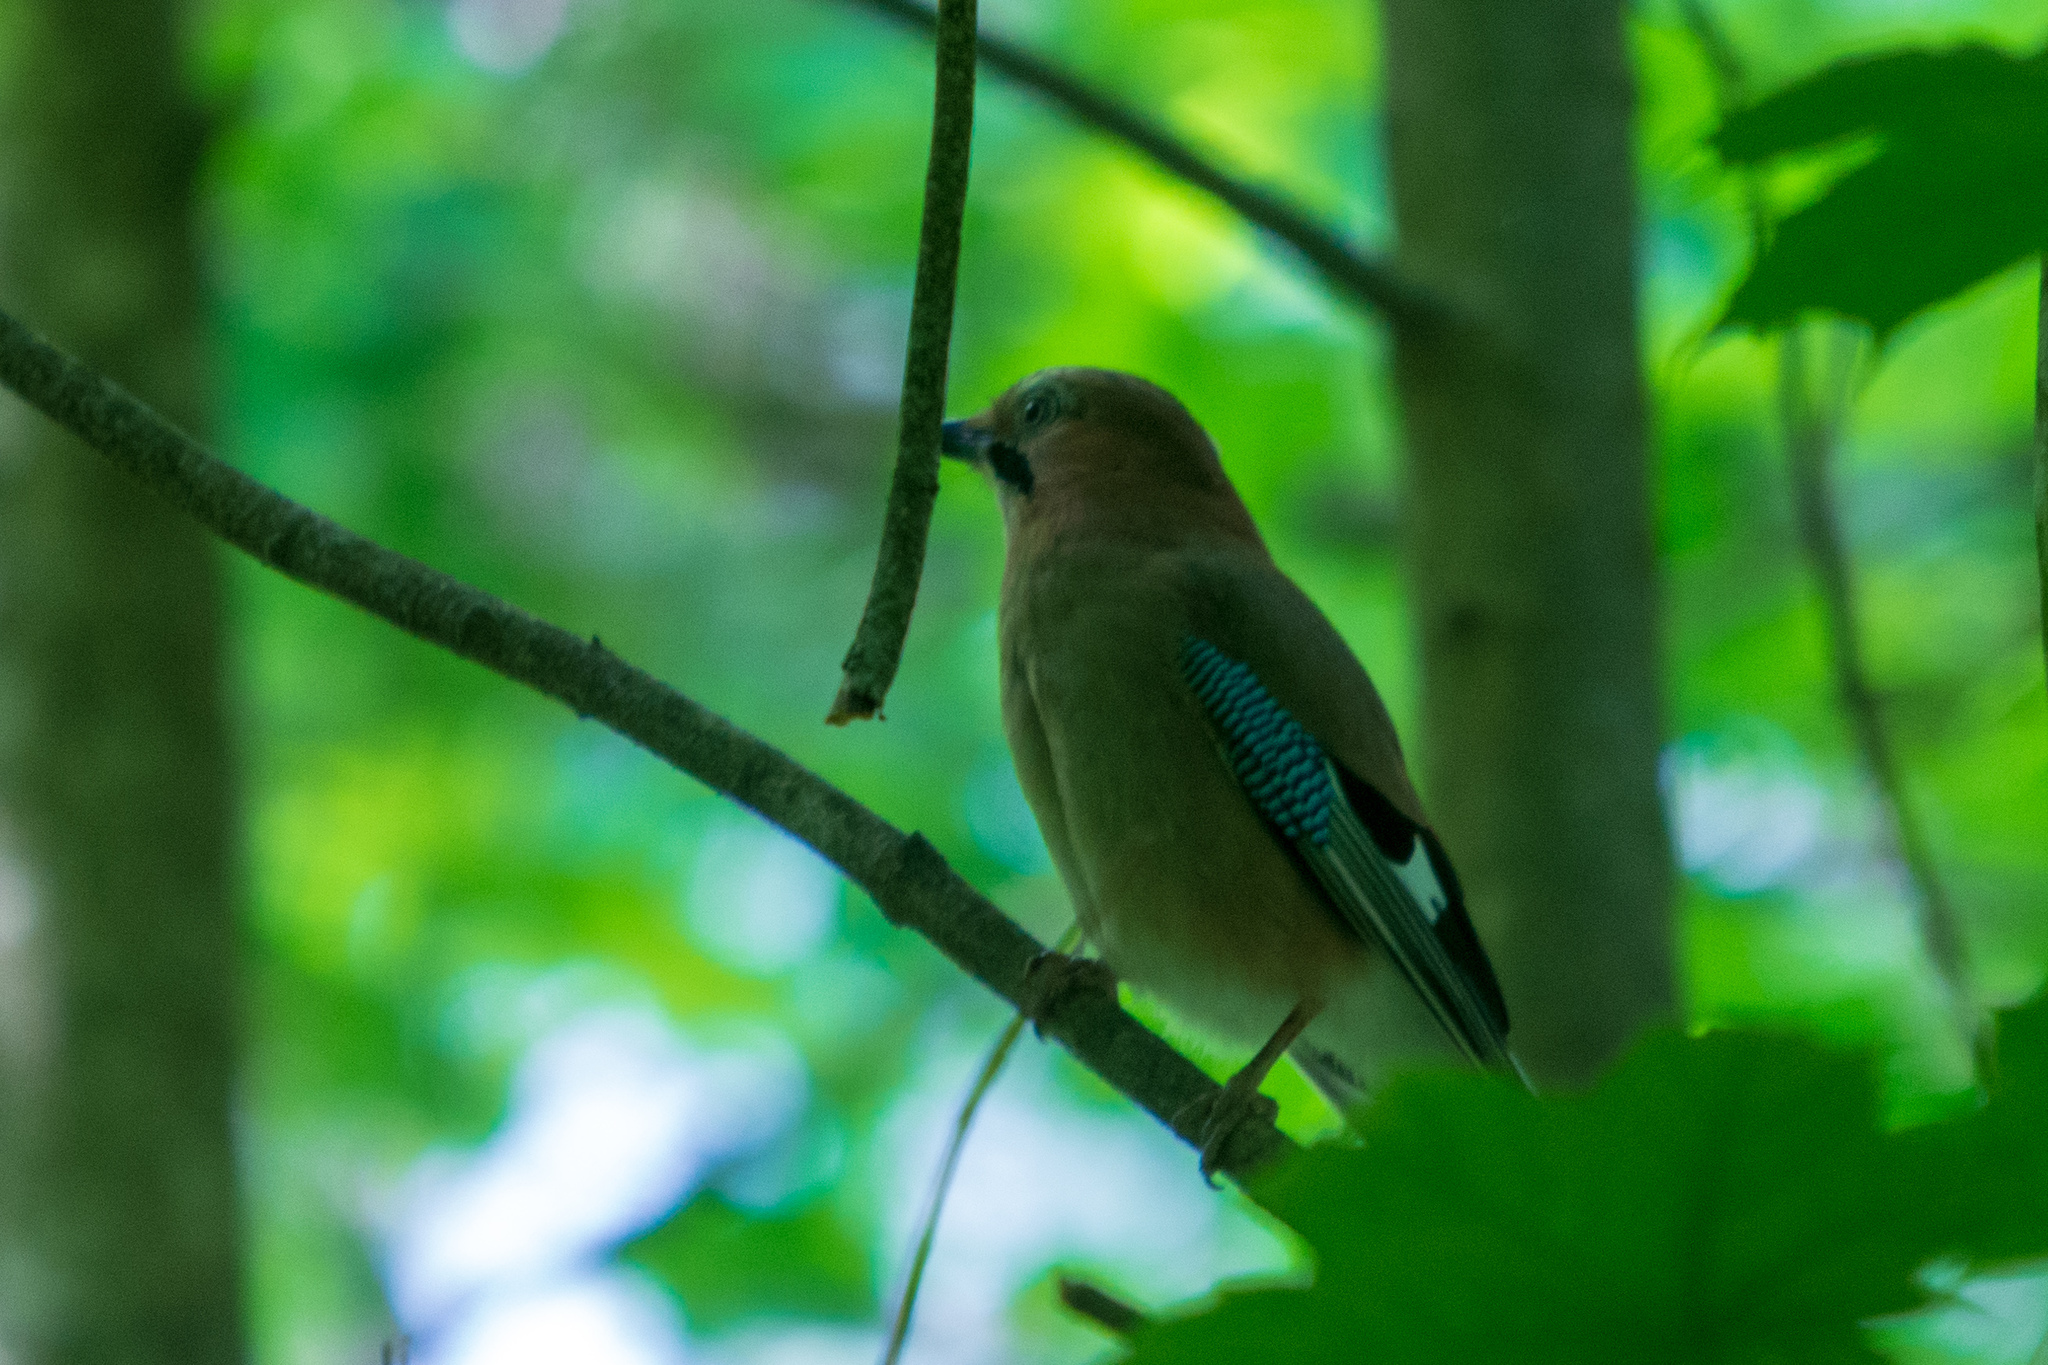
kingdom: Animalia
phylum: Chordata
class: Aves
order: Passeriformes
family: Corvidae
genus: Garrulus
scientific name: Garrulus glandarius
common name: Eurasian jay
